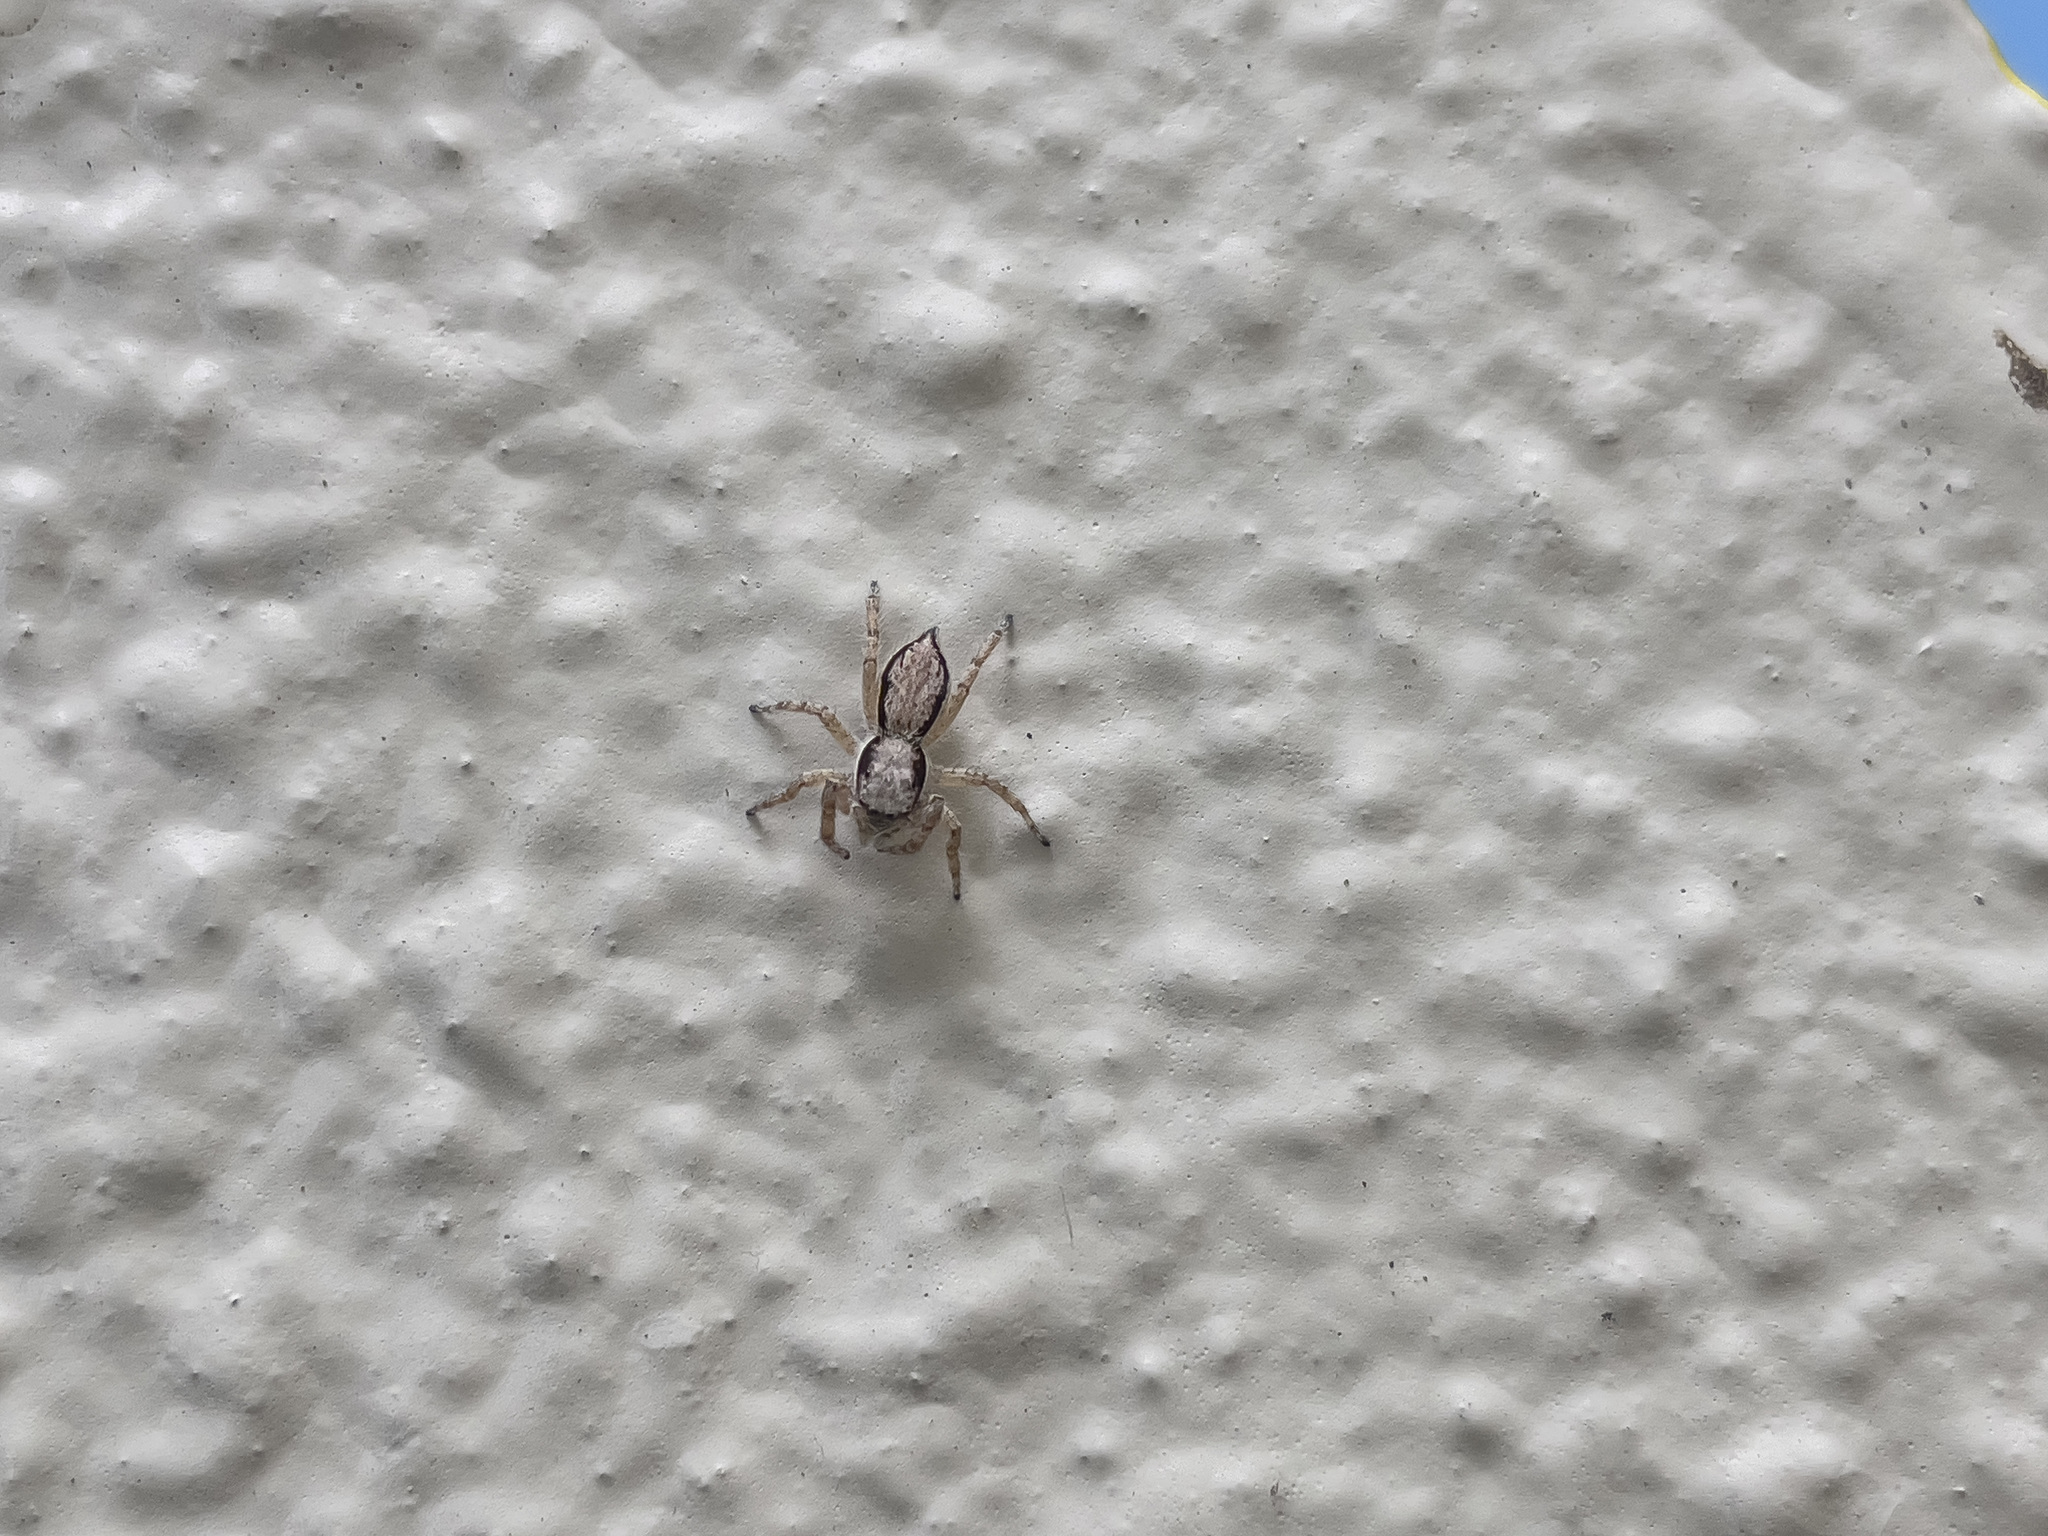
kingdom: Animalia
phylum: Arthropoda
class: Arachnida
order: Araneae
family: Salticidae
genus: Menemerus
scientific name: Menemerus bivittatus
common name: Gray wall jumper
